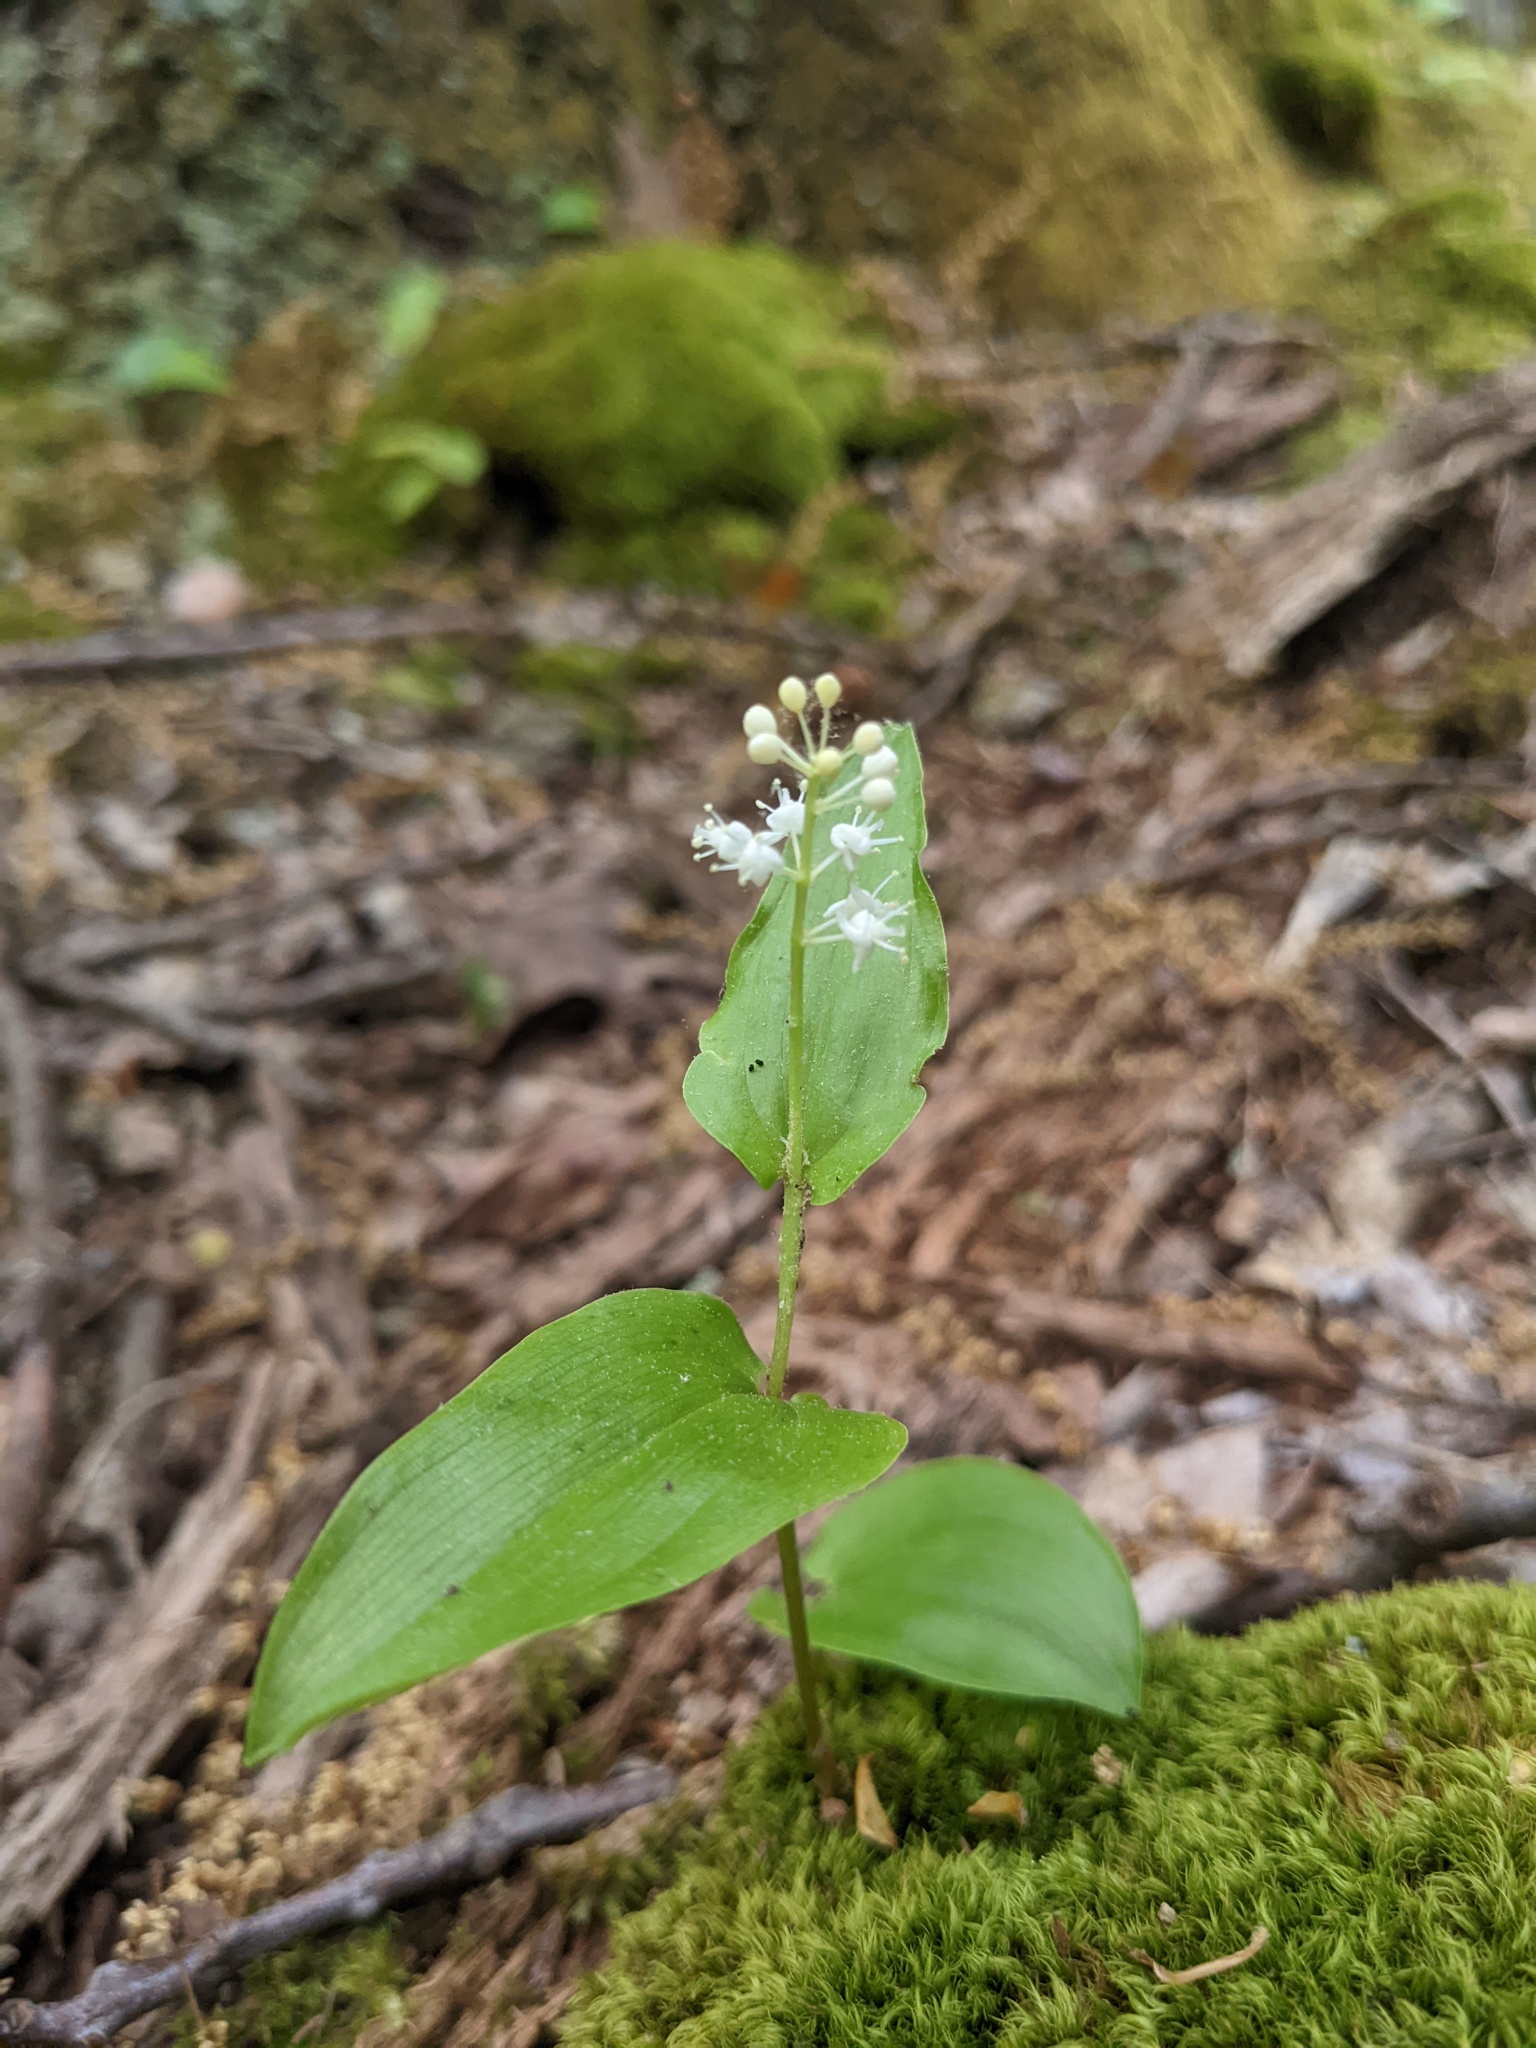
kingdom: Plantae
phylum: Tracheophyta
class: Liliopsida
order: Asparagales
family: Asparagaceae
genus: Maianthemum
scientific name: Maianthemum canadense
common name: False lily-of-the-valley
